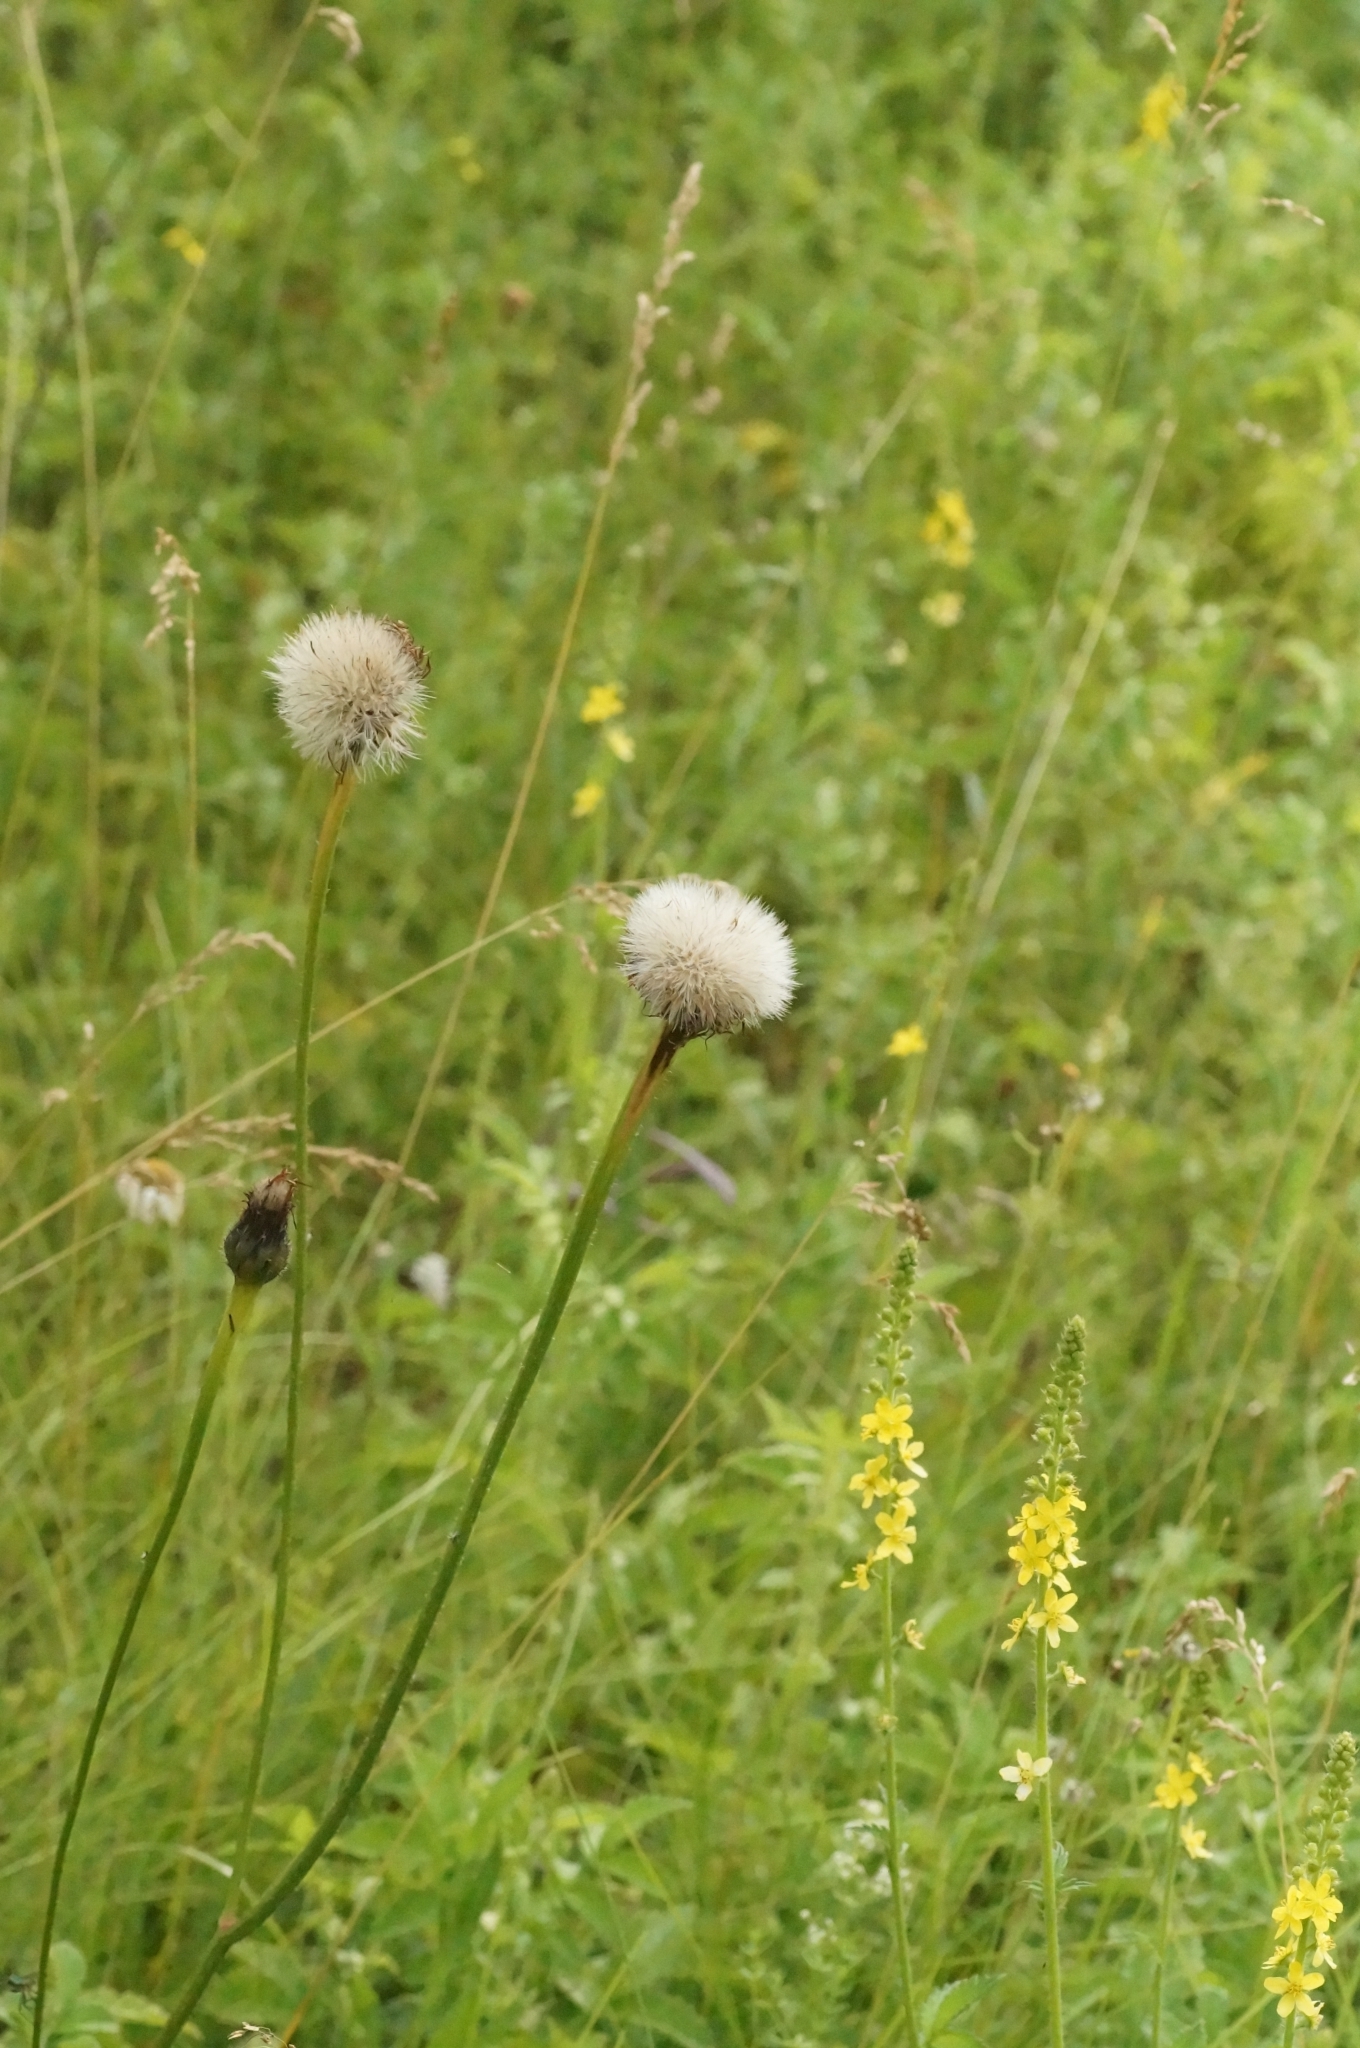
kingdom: Plantae
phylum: Tracheophyta
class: Magnoliopsida
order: Asterales
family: Asteraceae
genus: Trommsdorffia
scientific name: Trommsdorffia maculata
